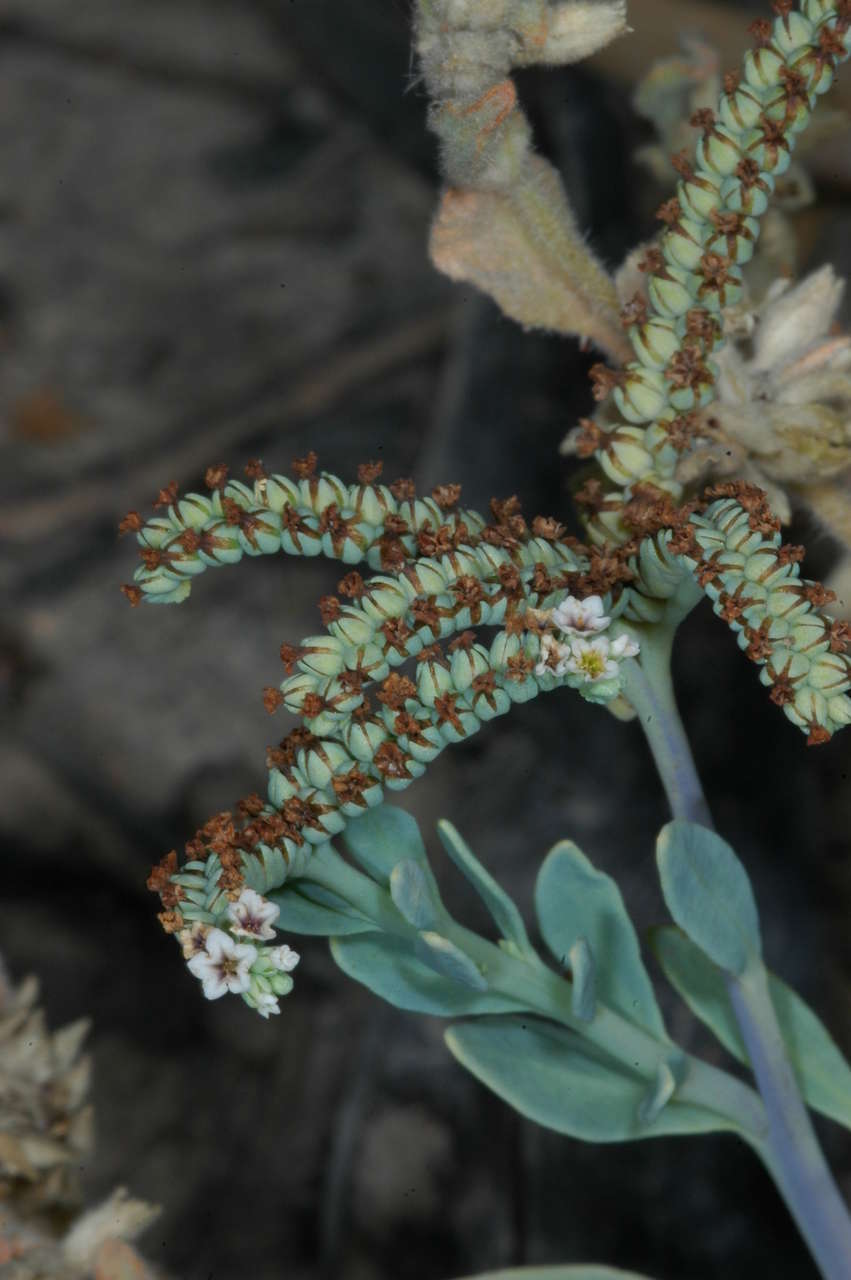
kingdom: Plantae
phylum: Tracheophyta
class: Magnoliopsida
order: Boraginales
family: Heliotropiaceae
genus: Heliotropium
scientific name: Heliotropium curassavicum
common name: Seaside heliotrope
